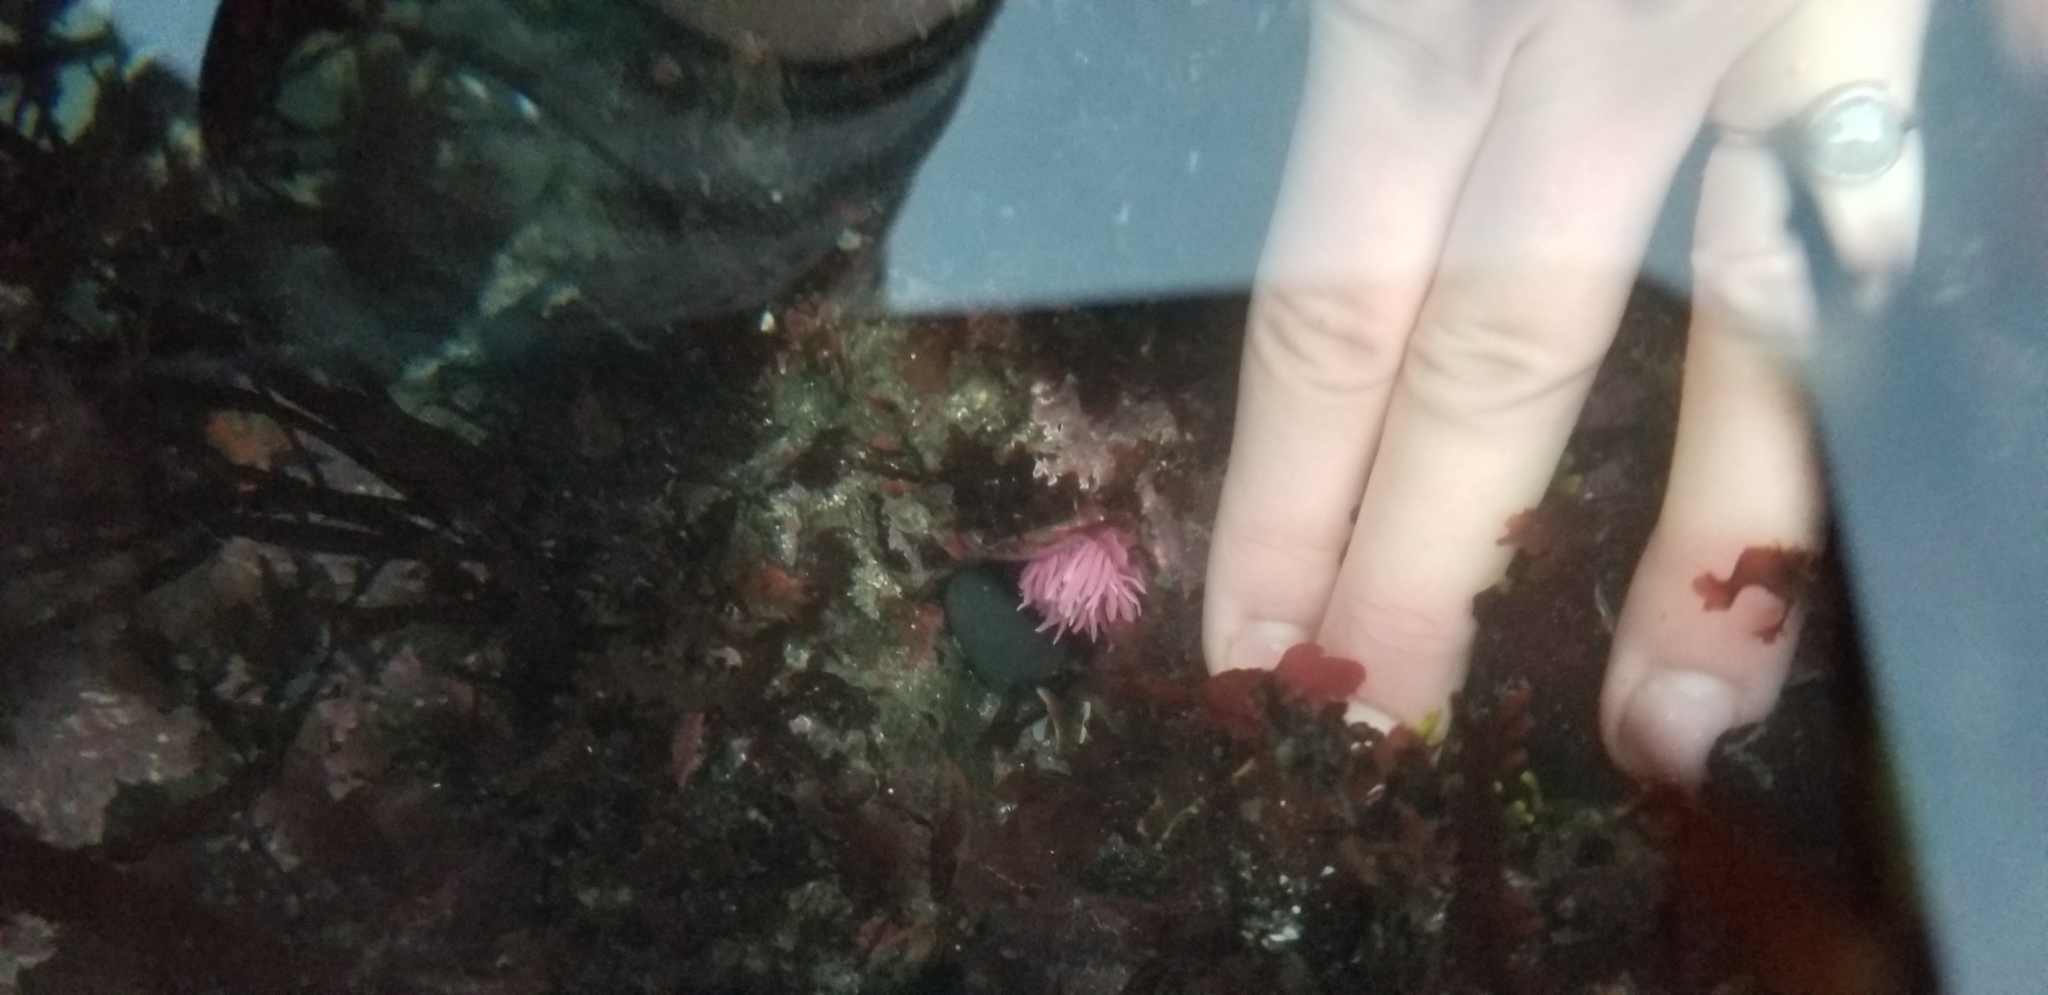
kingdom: Animalia
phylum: Mollusca
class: Gastropoda
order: Nudibranchia
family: Goniodorididae
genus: Okenia
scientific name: Okenia
